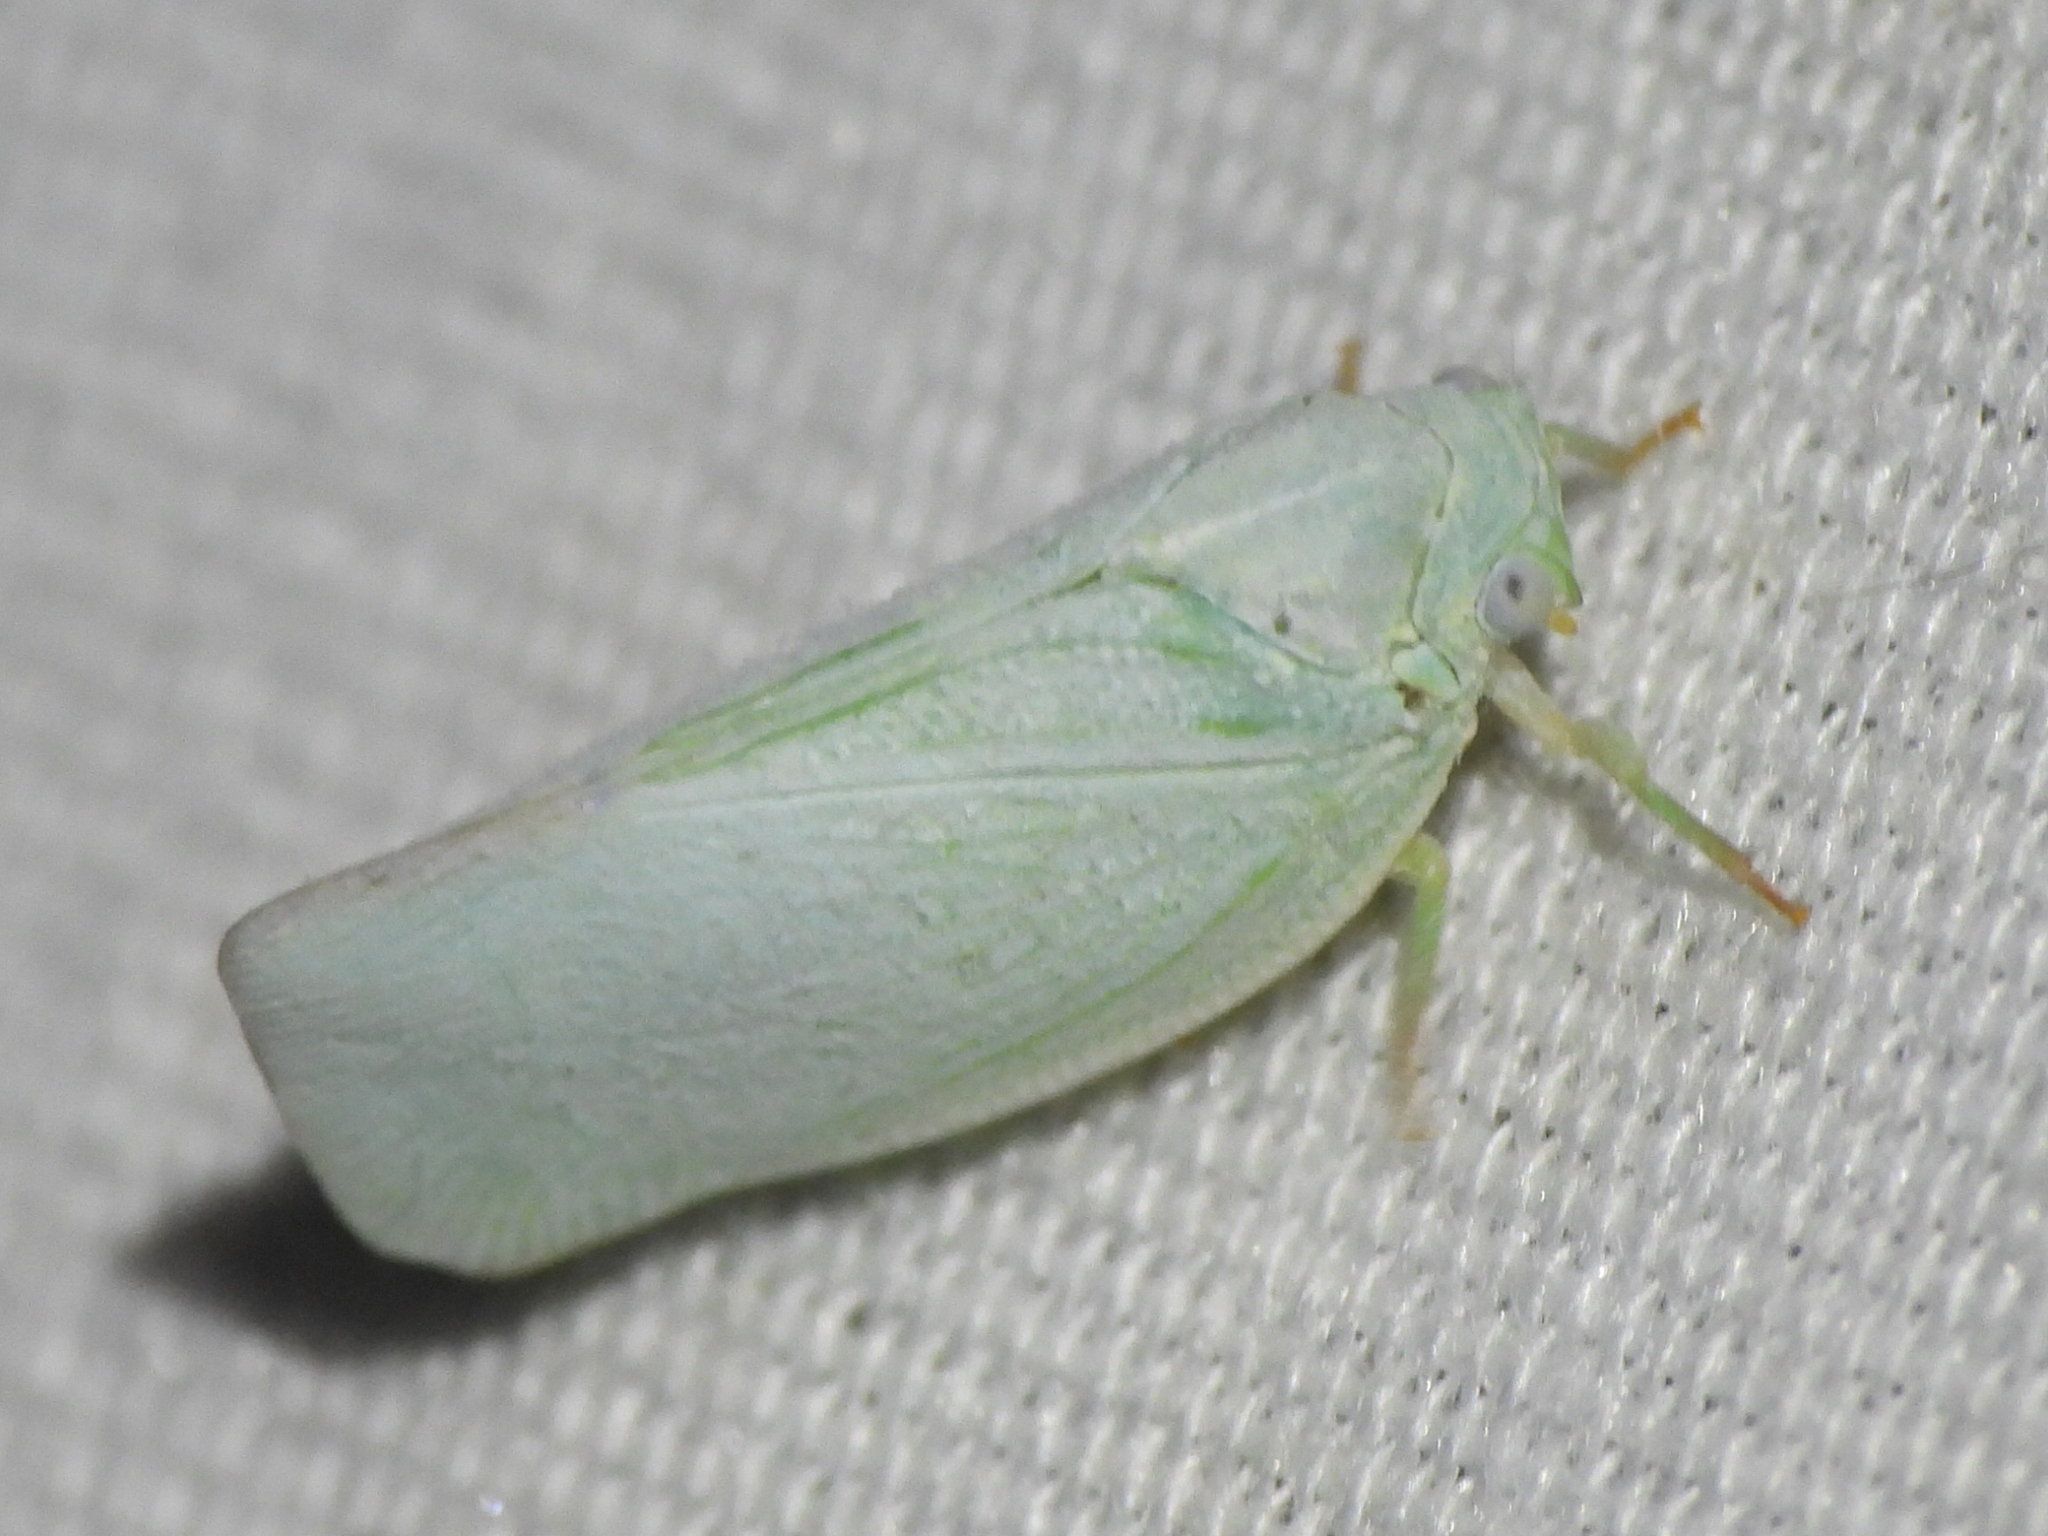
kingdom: Animalia
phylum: Arthropoda
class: Insecta
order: Hemiptera
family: Flatidae
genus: Flatormenis
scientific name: Flatormenis proxima
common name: Northern flatid planthopper
